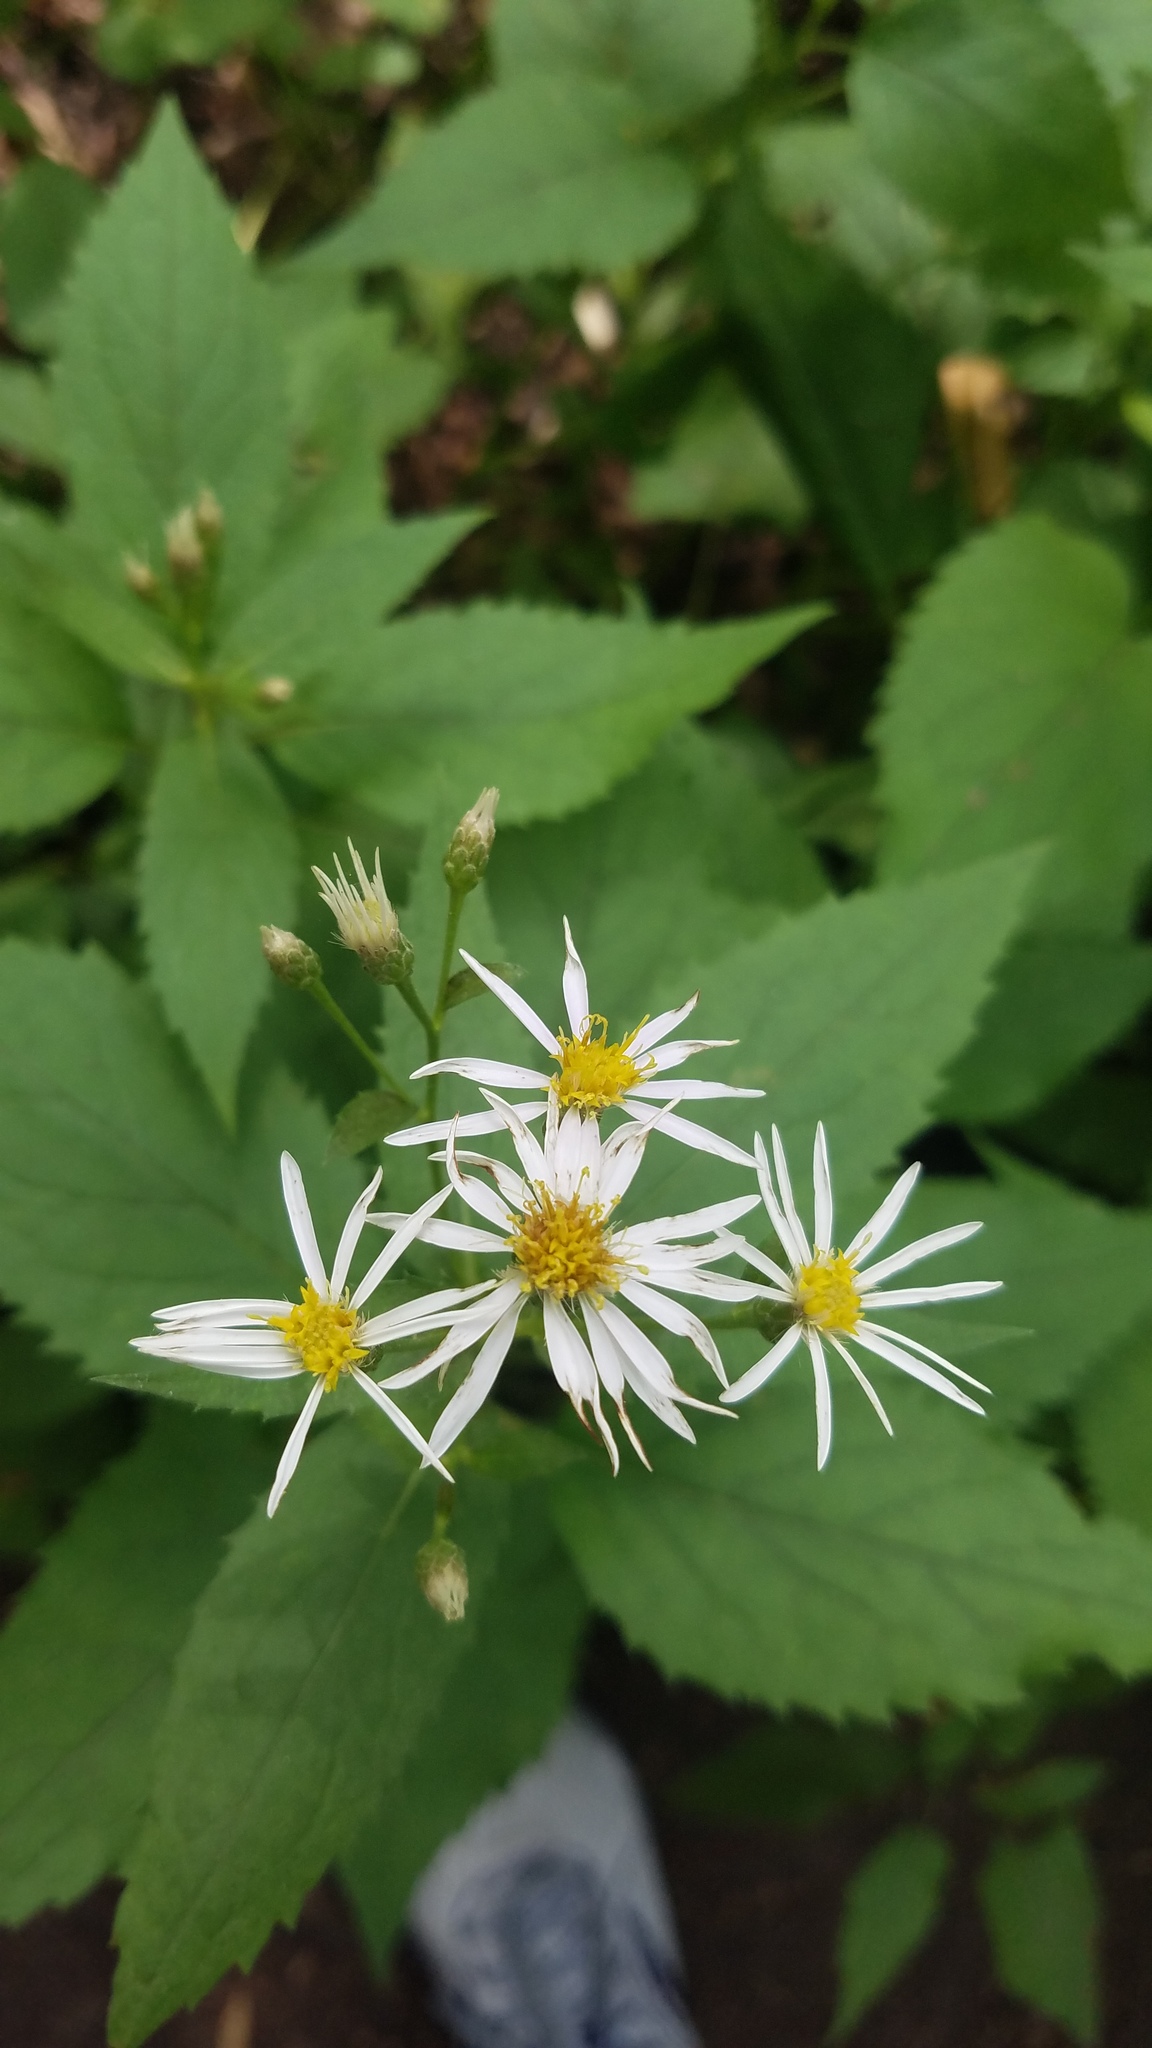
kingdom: Plantae
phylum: Tracheophyta
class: Magnoliopsida
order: Asterales
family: Asteraceae
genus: Eurybia
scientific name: Eurybia macrophylla
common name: Big-leaved aster
